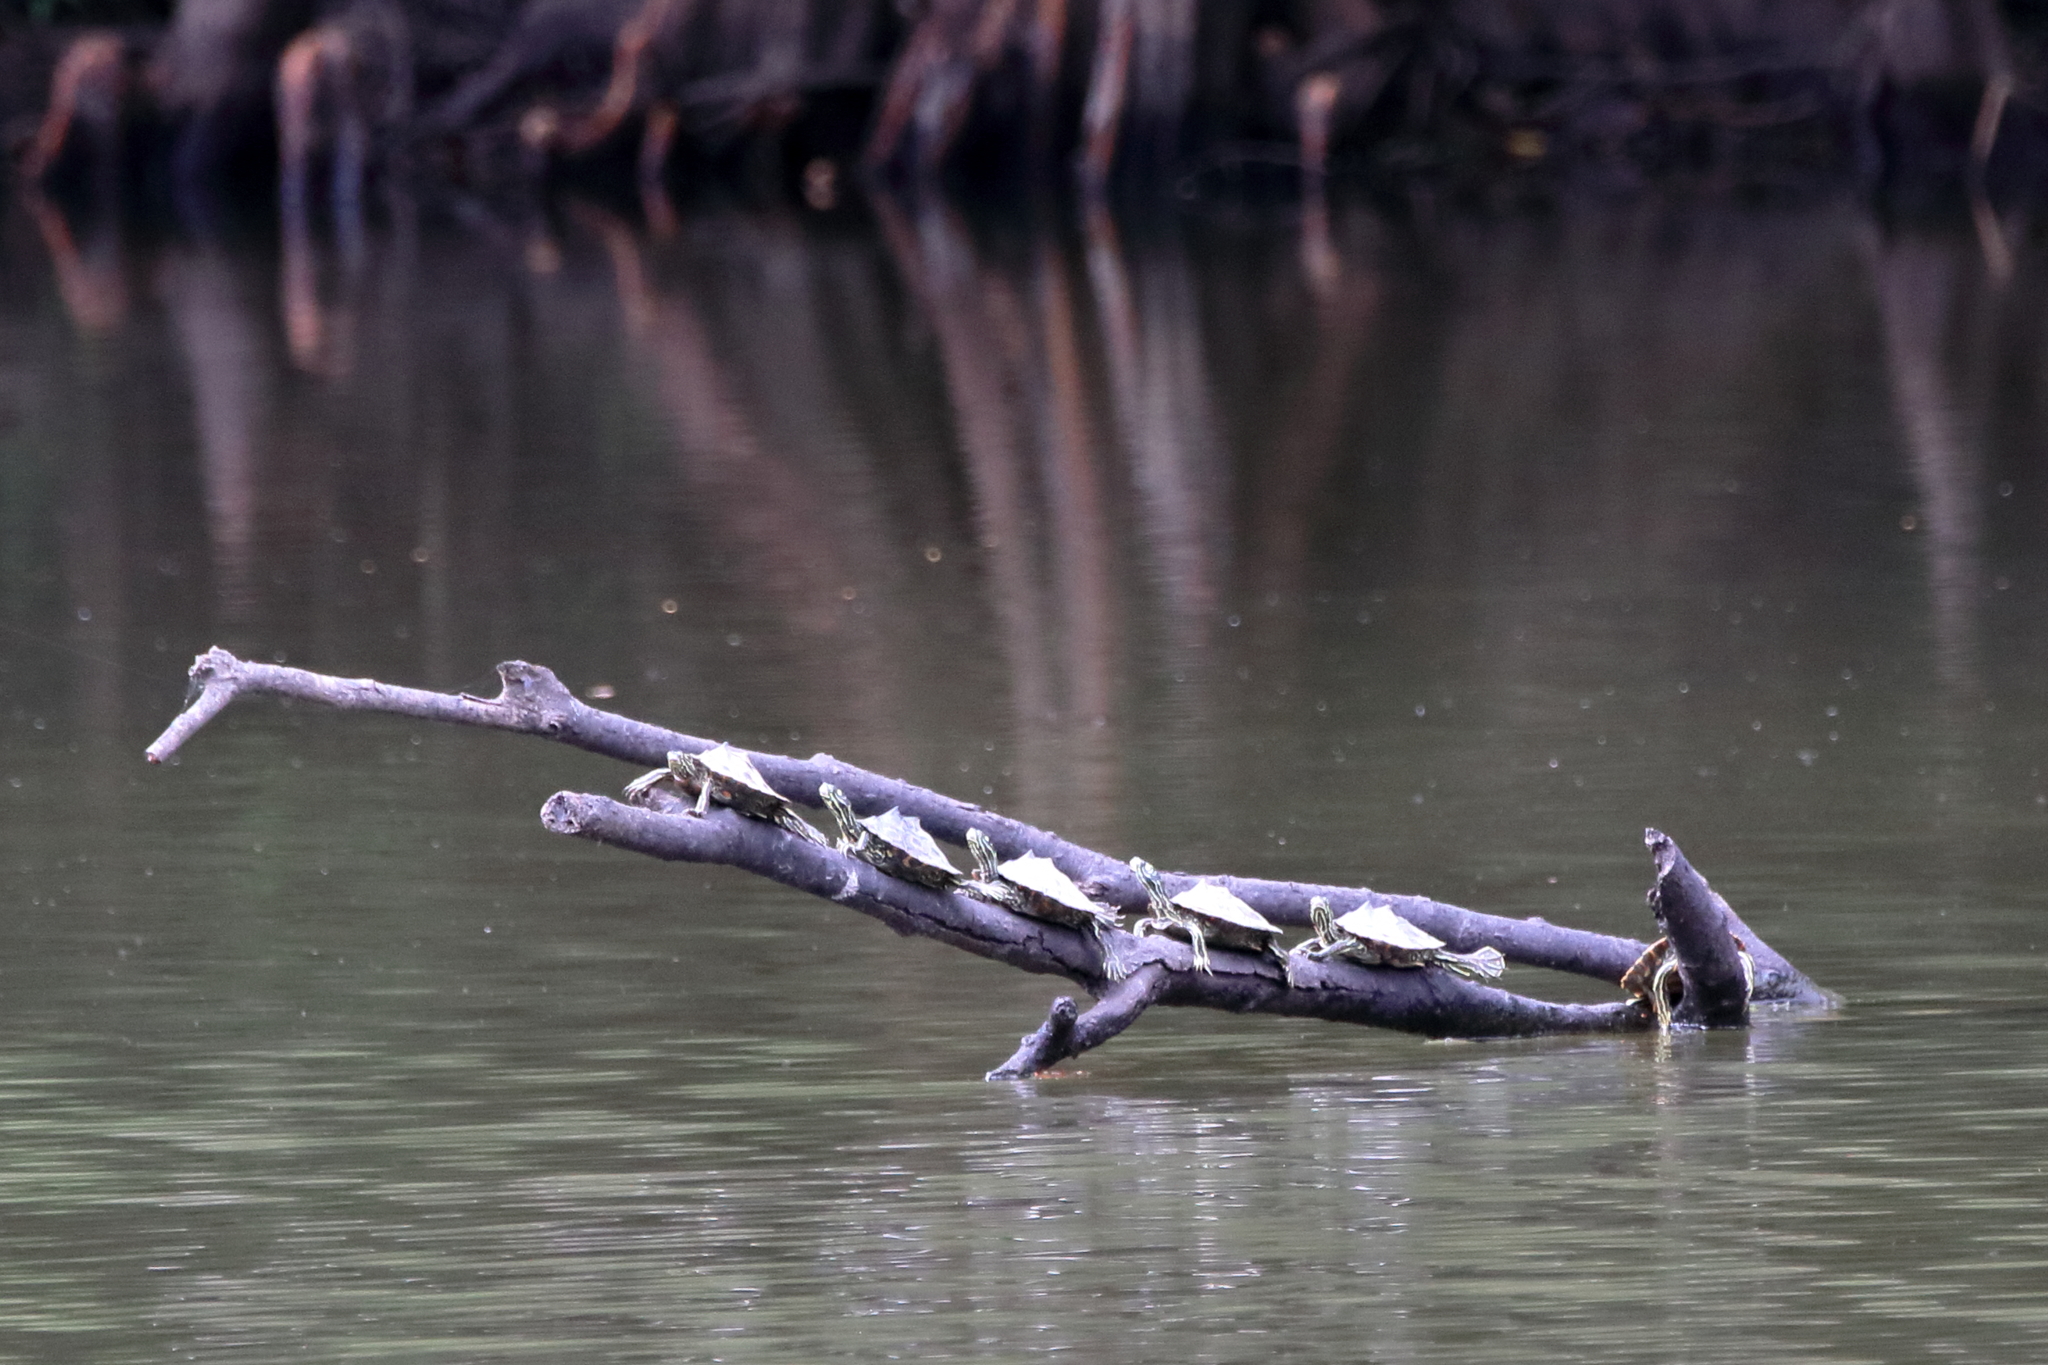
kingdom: Animalia
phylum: Chordata
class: Testudines
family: Emydidae
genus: Graptemys
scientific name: Graptemys oculifera
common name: Ringed map turtle
